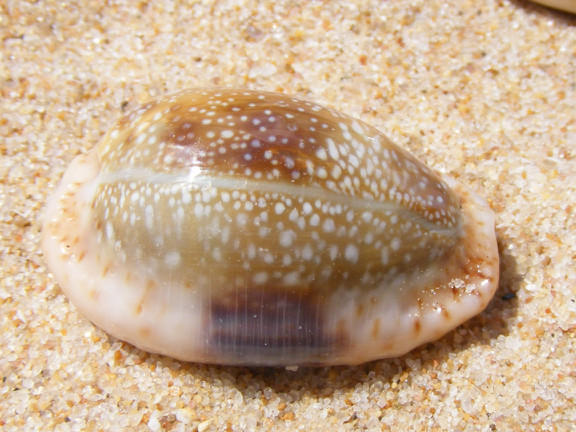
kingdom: Animalia
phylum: Mollusca
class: Gastropoda
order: Littorinimorpha
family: Cypraeidae
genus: Naria
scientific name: Naria erosa
